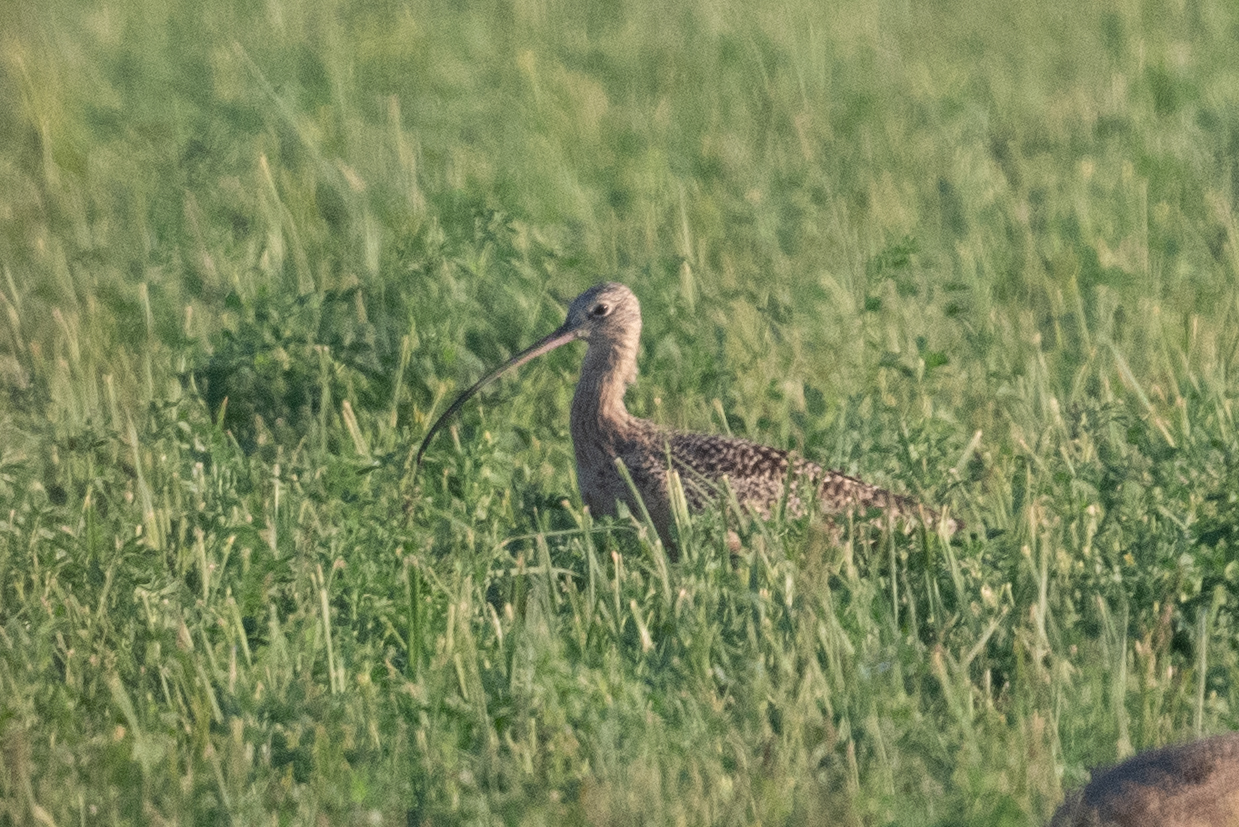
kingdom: Animalia
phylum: Chordata
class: Aves
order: Charadriiformes
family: Scolopacidae
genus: Numenius
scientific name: Numenius americanus
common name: Long-billed curlew
